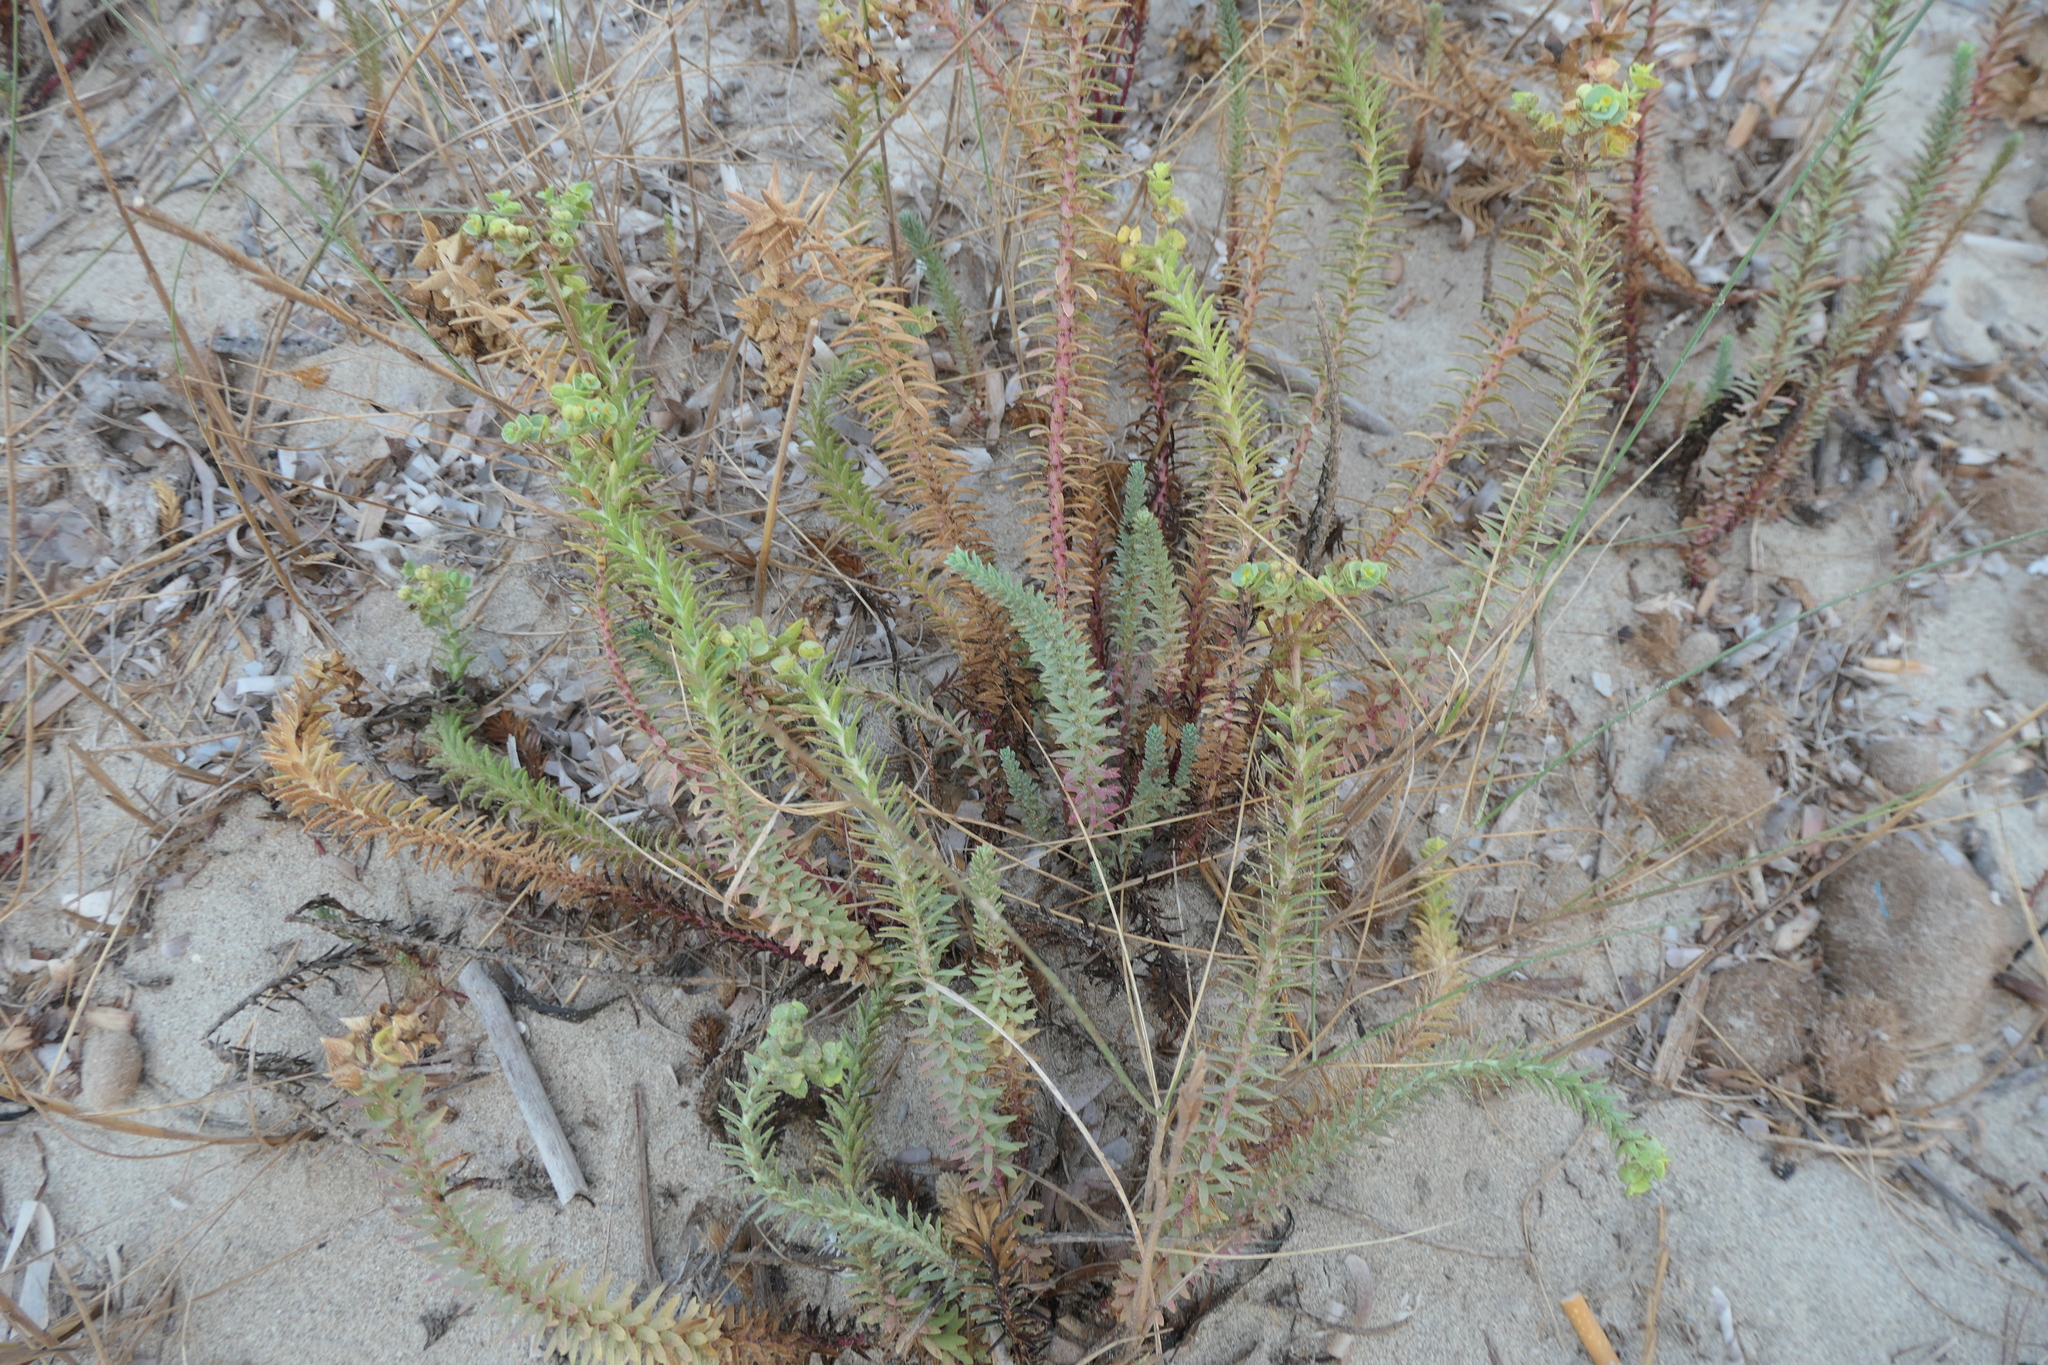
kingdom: Plantae
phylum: Tracheophyta
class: Magnoliopsida
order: Malpighiales
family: Euphorbiaceae
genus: Euphorbia
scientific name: Euphorbia paralias
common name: Sea spurge
